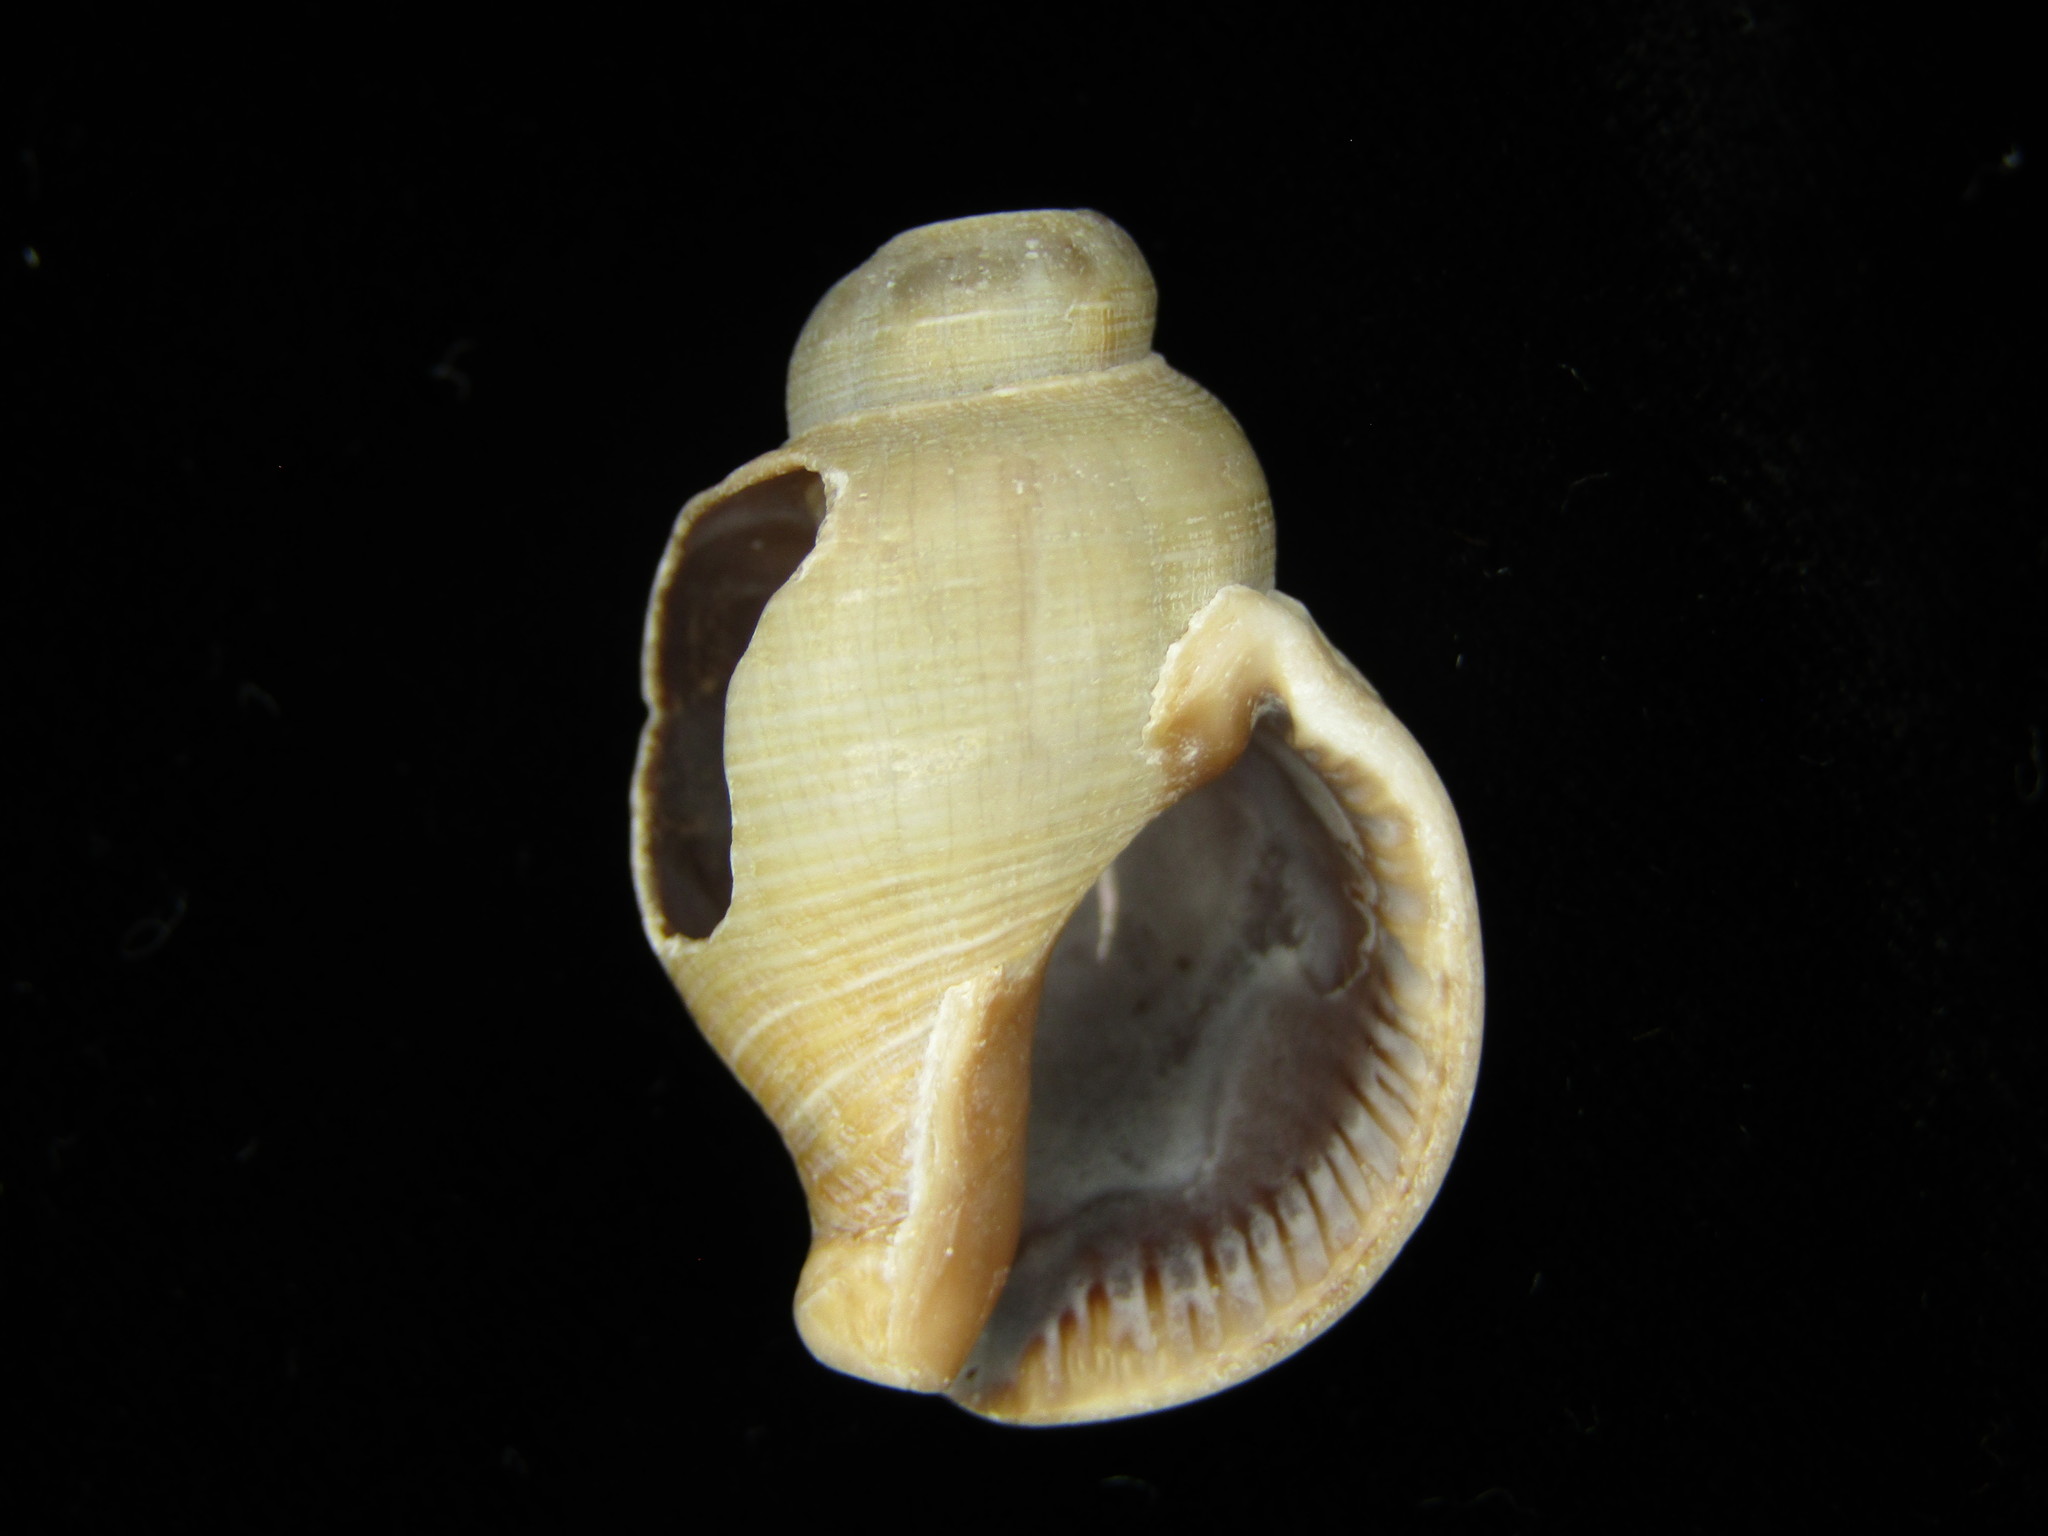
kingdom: Animalia
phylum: Mollusca
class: Gastropoda
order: Neogastropoda
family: Buccinidae
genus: Siphonalia
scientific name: Siphonalia trochulus
